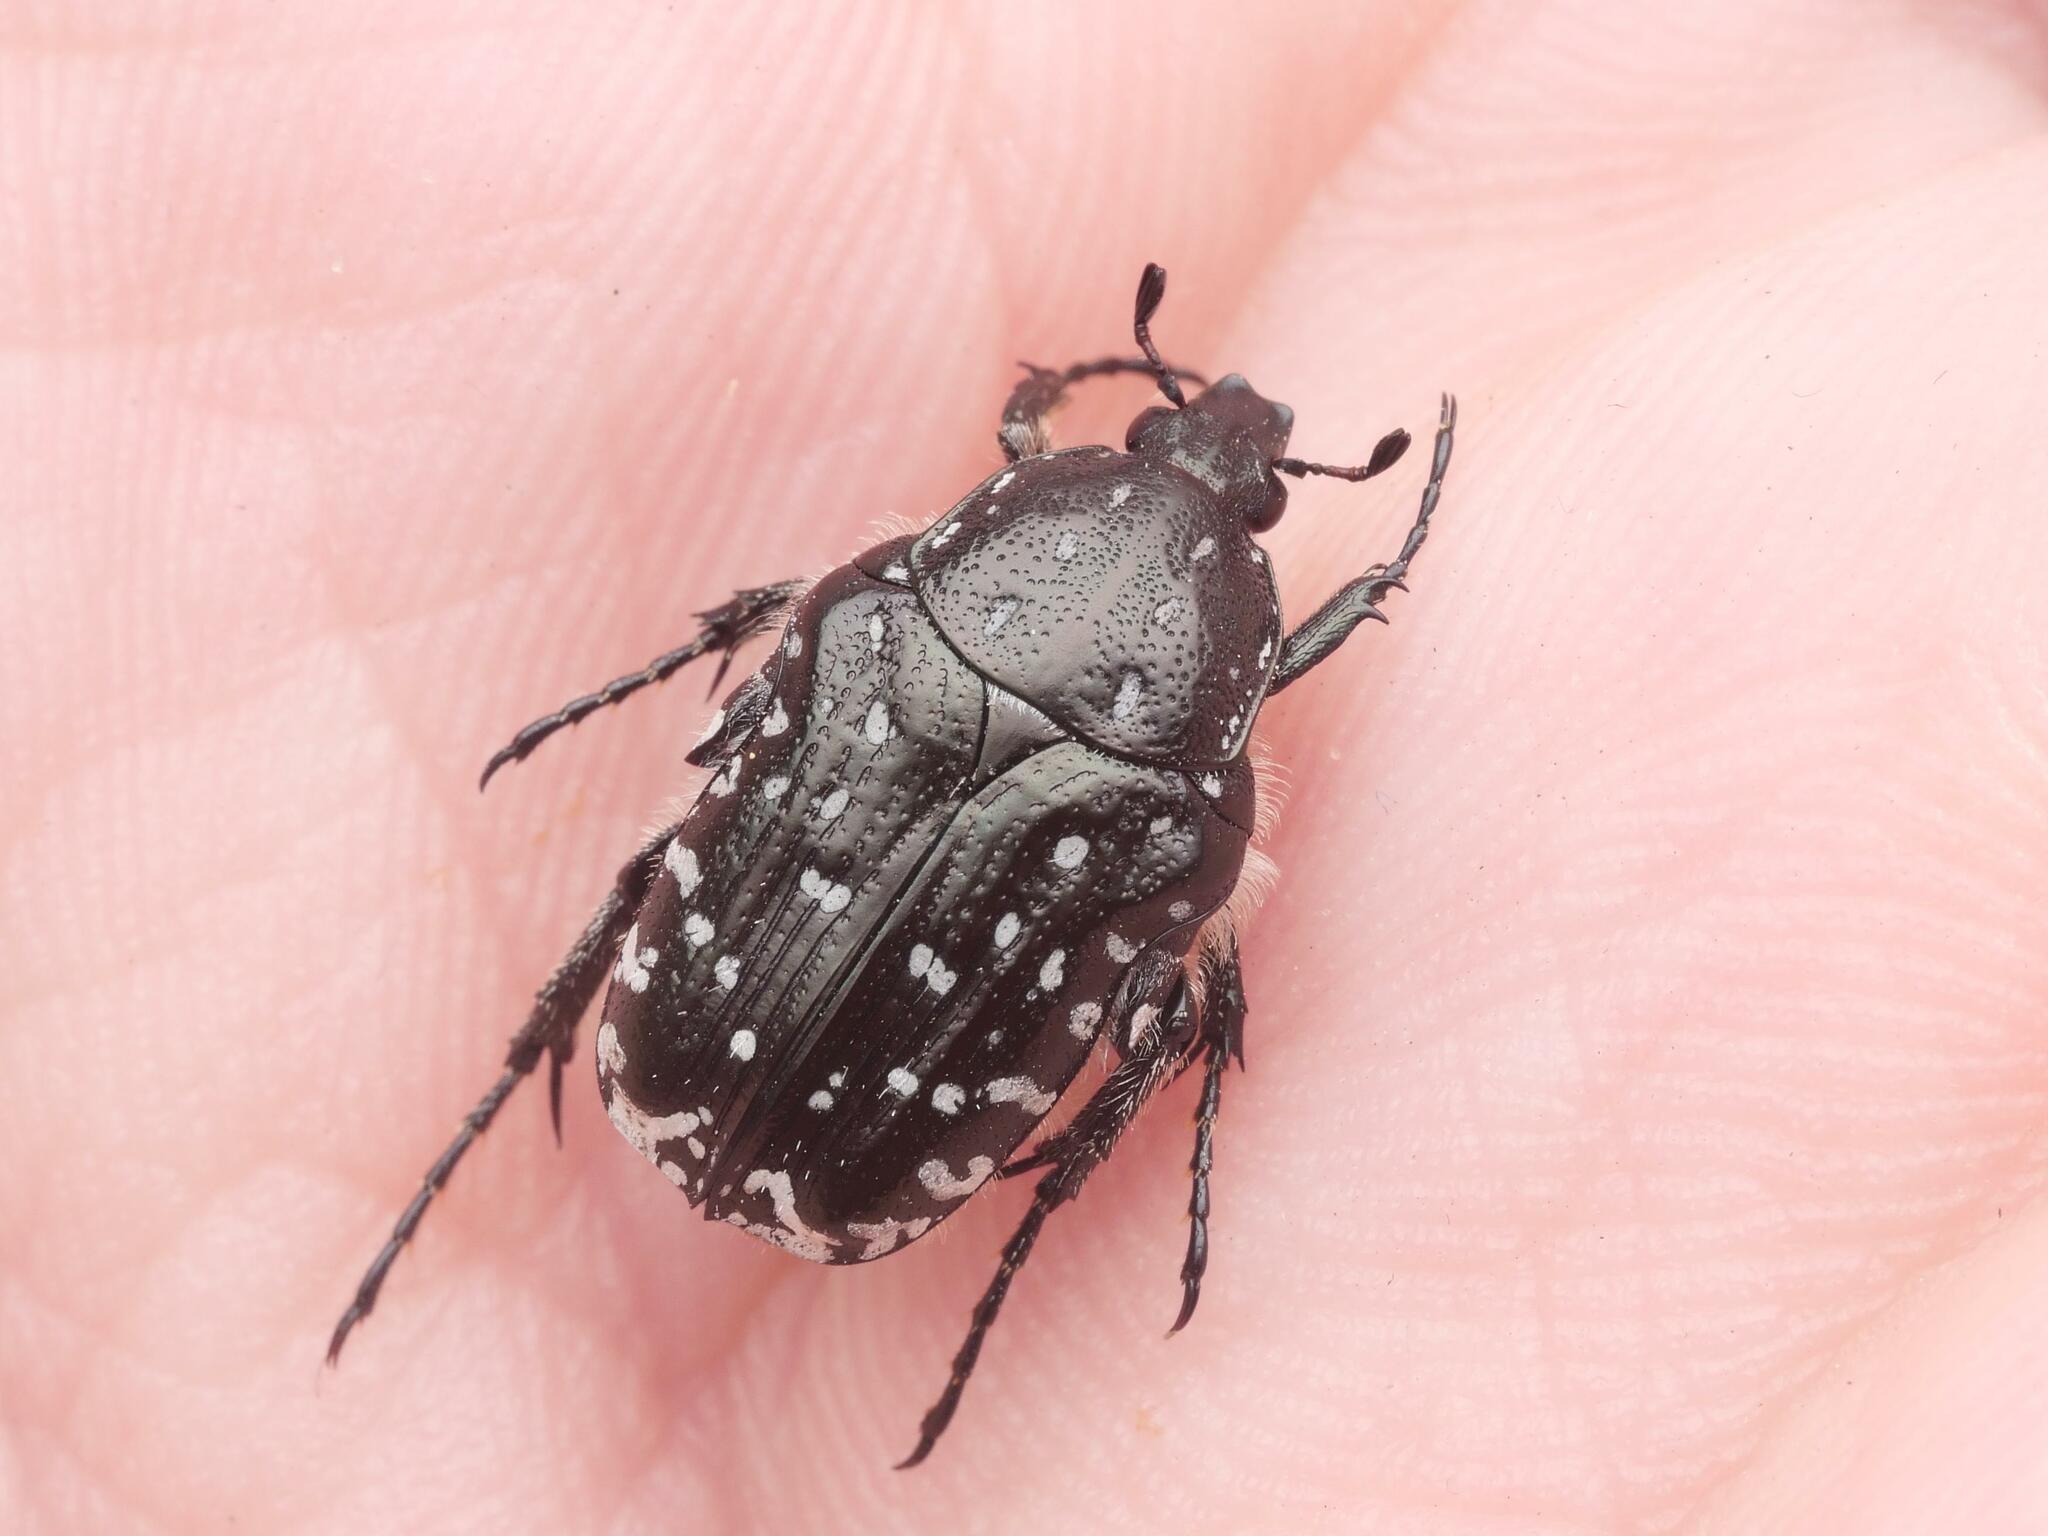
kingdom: Animalia
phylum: Arthropoda
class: Insecta
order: Coleoptera
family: Scarabaeidae
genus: Oxythyrea
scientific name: Oxythyrea funesta
